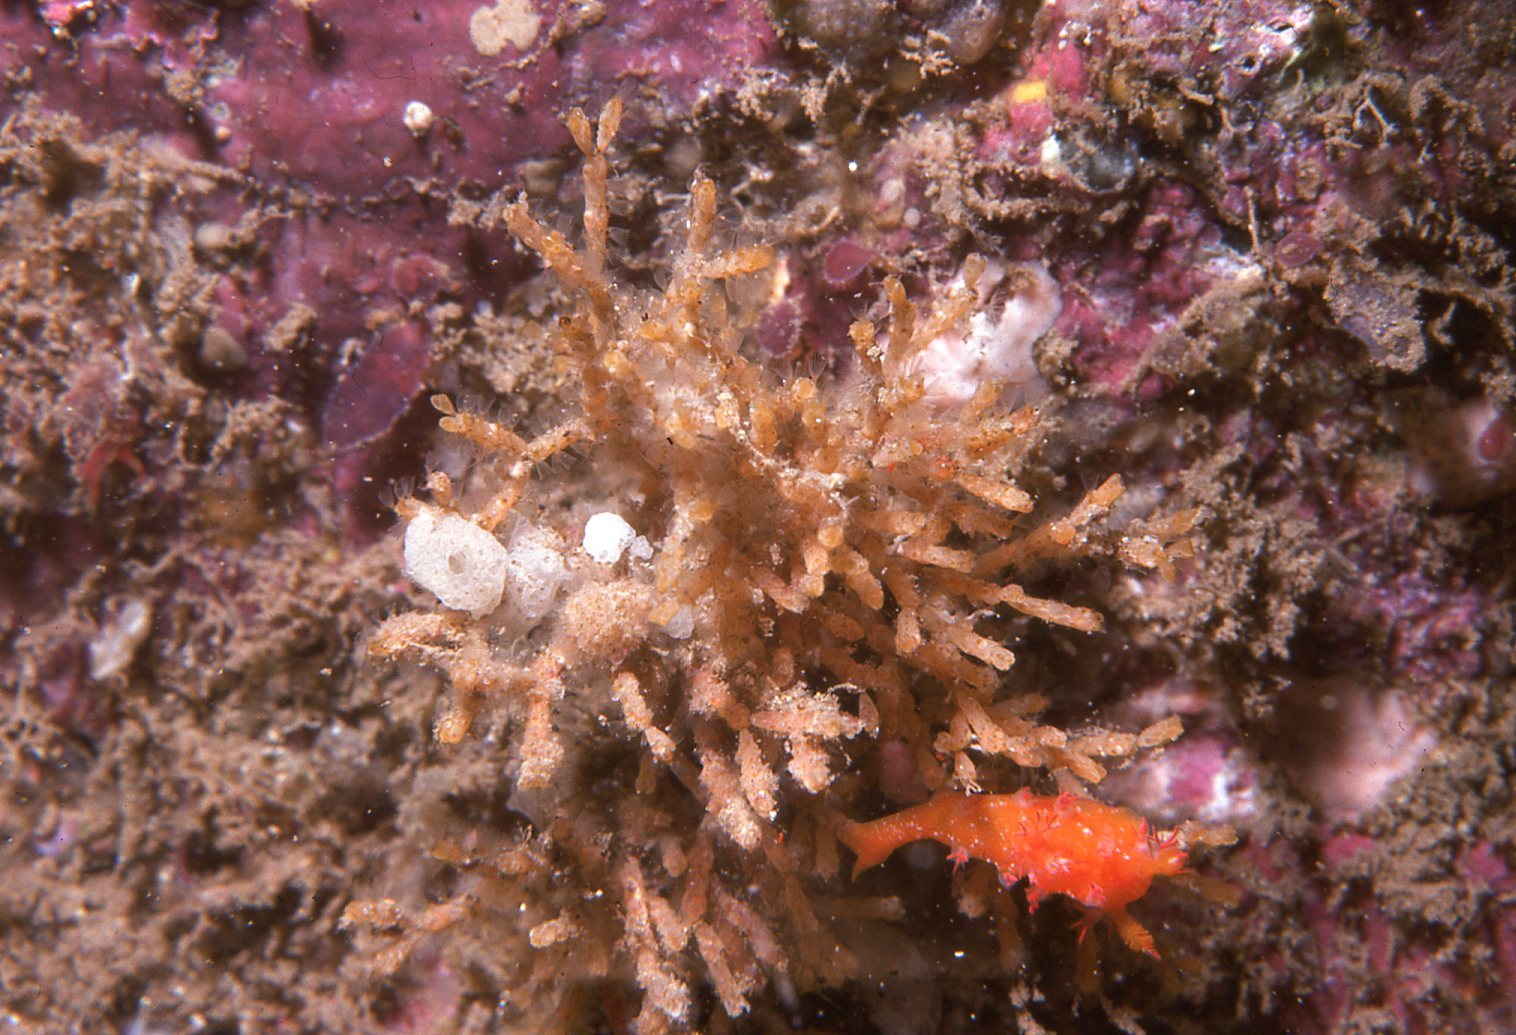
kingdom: Animalia
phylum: Mollusca
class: Gastropoda
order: Nudibranchia
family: Polyceridae
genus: Kaloplocamus
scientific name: Kaloplocamus acutus
